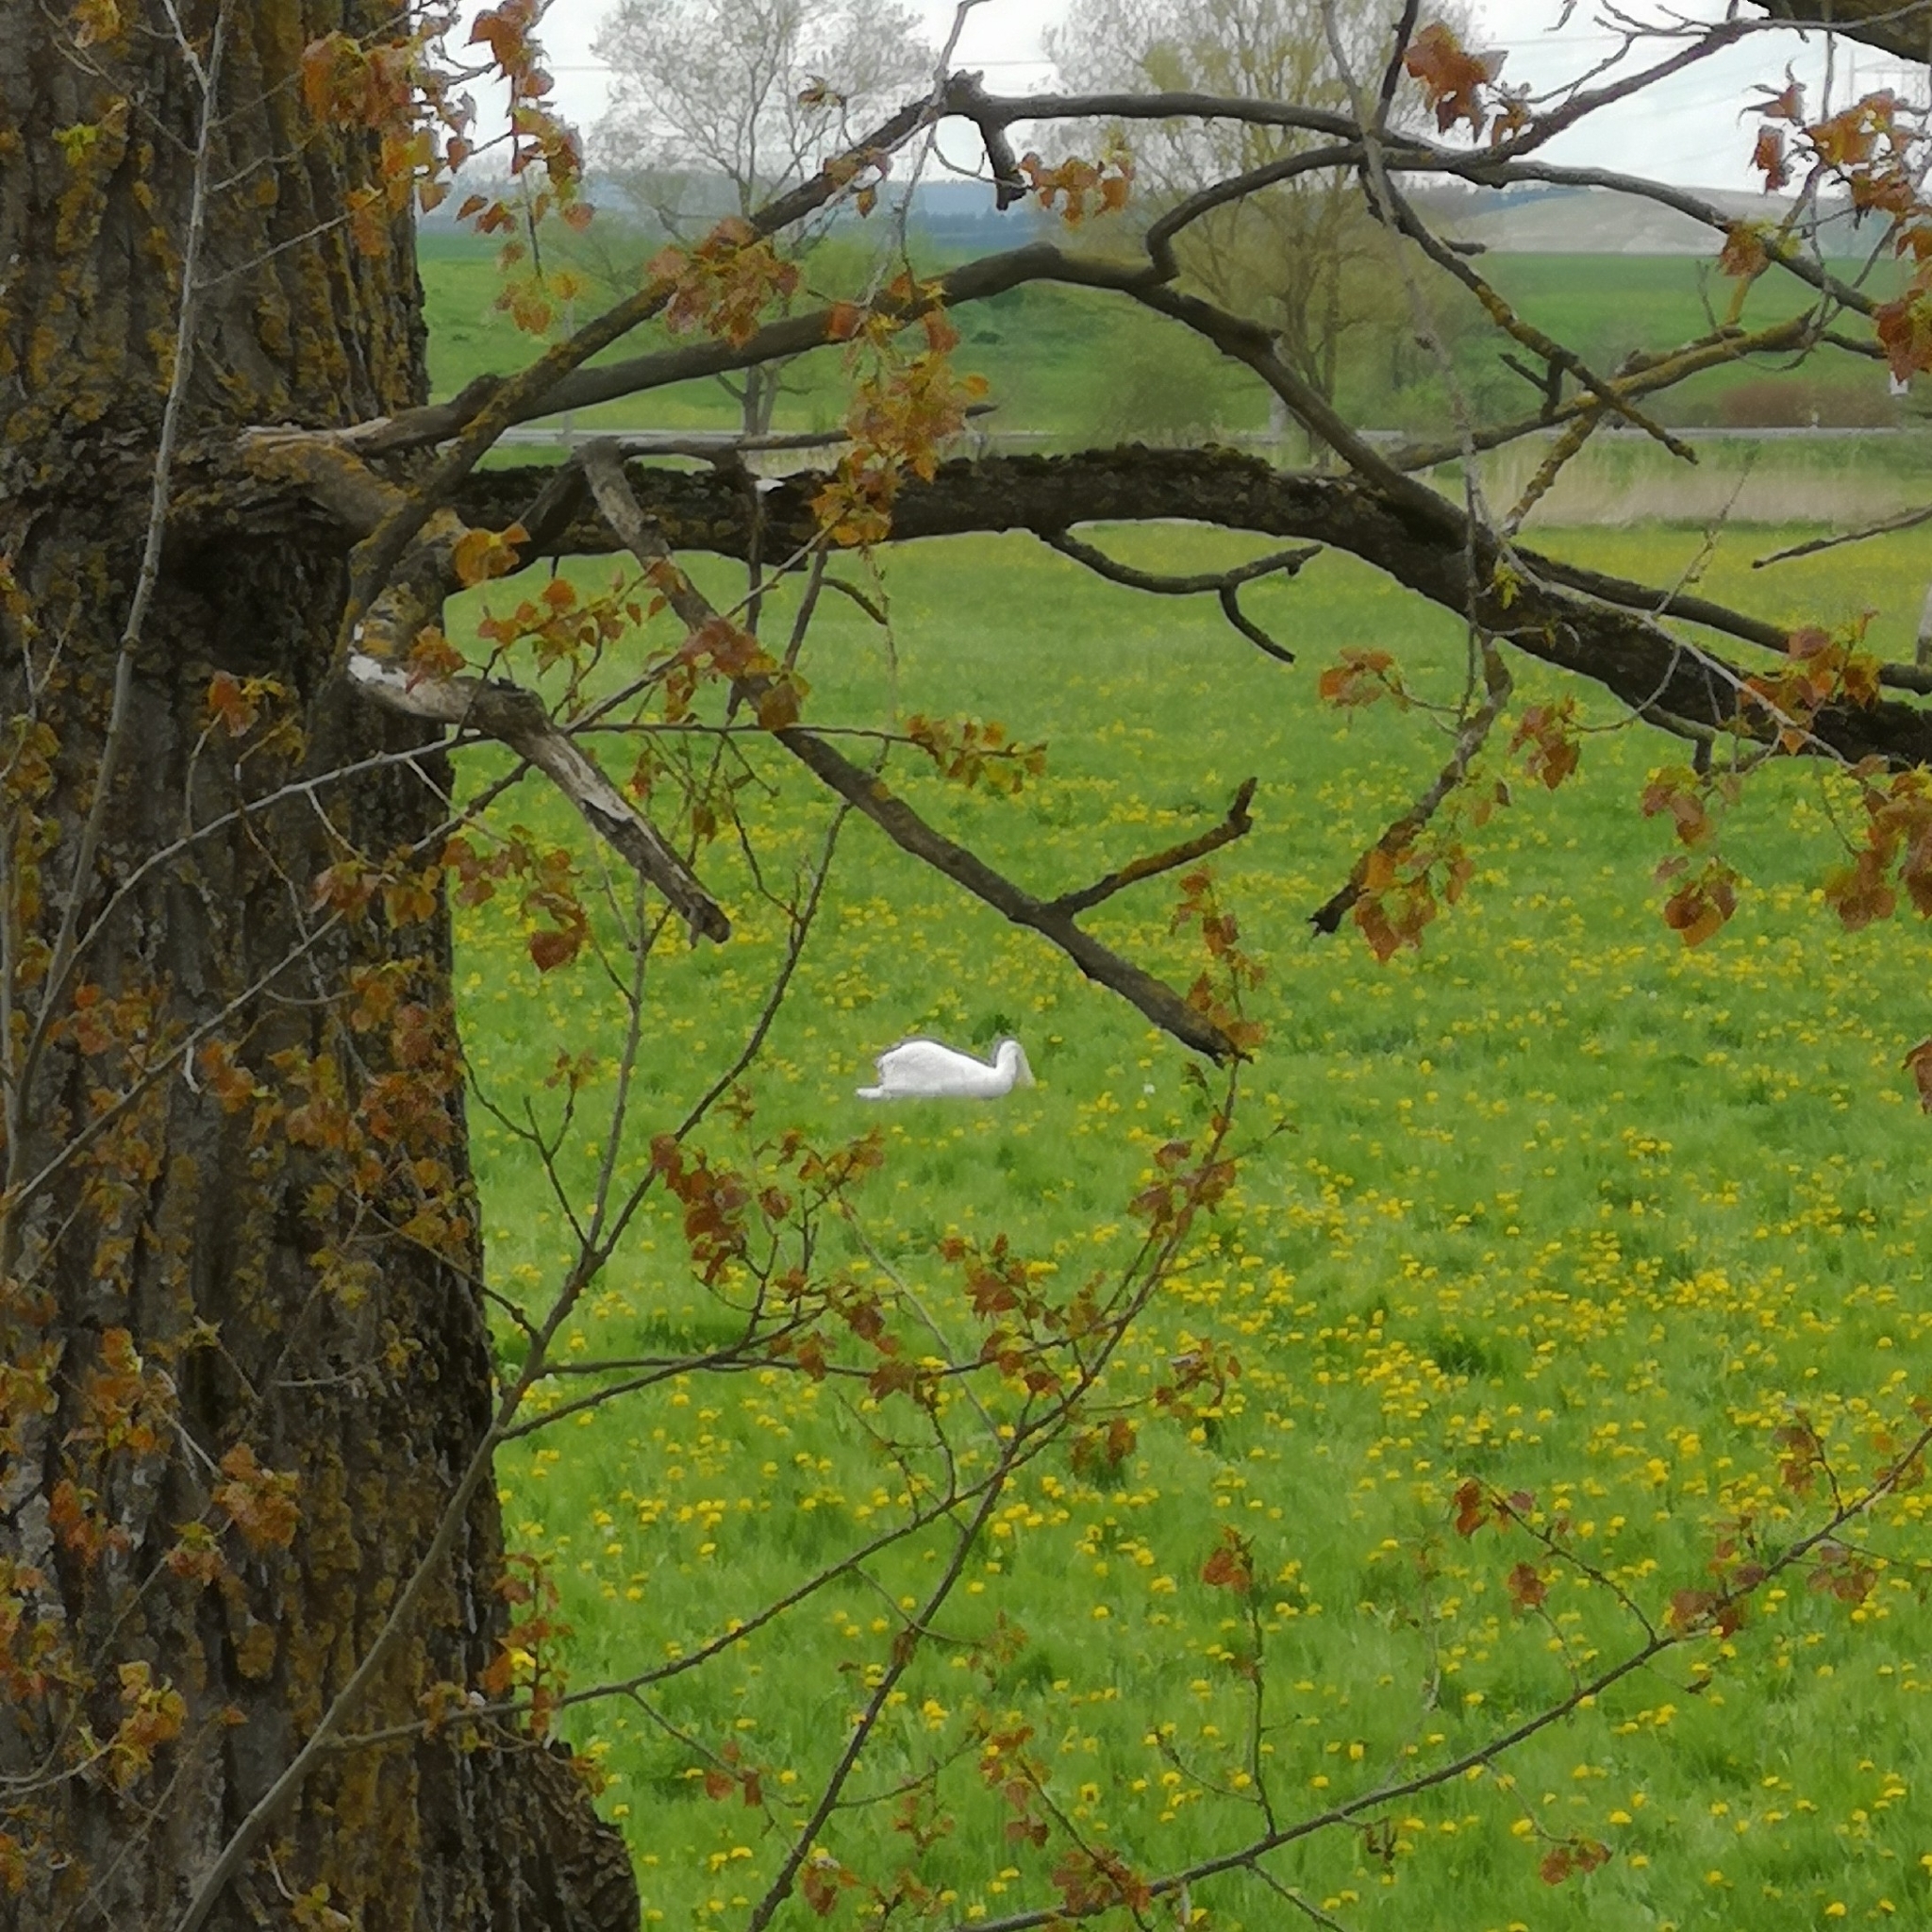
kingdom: Animalia
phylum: Chordata
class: Aves
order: Anseriformes
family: Anatidae
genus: Cygnus
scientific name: Cygnus olor
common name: Mute swan
